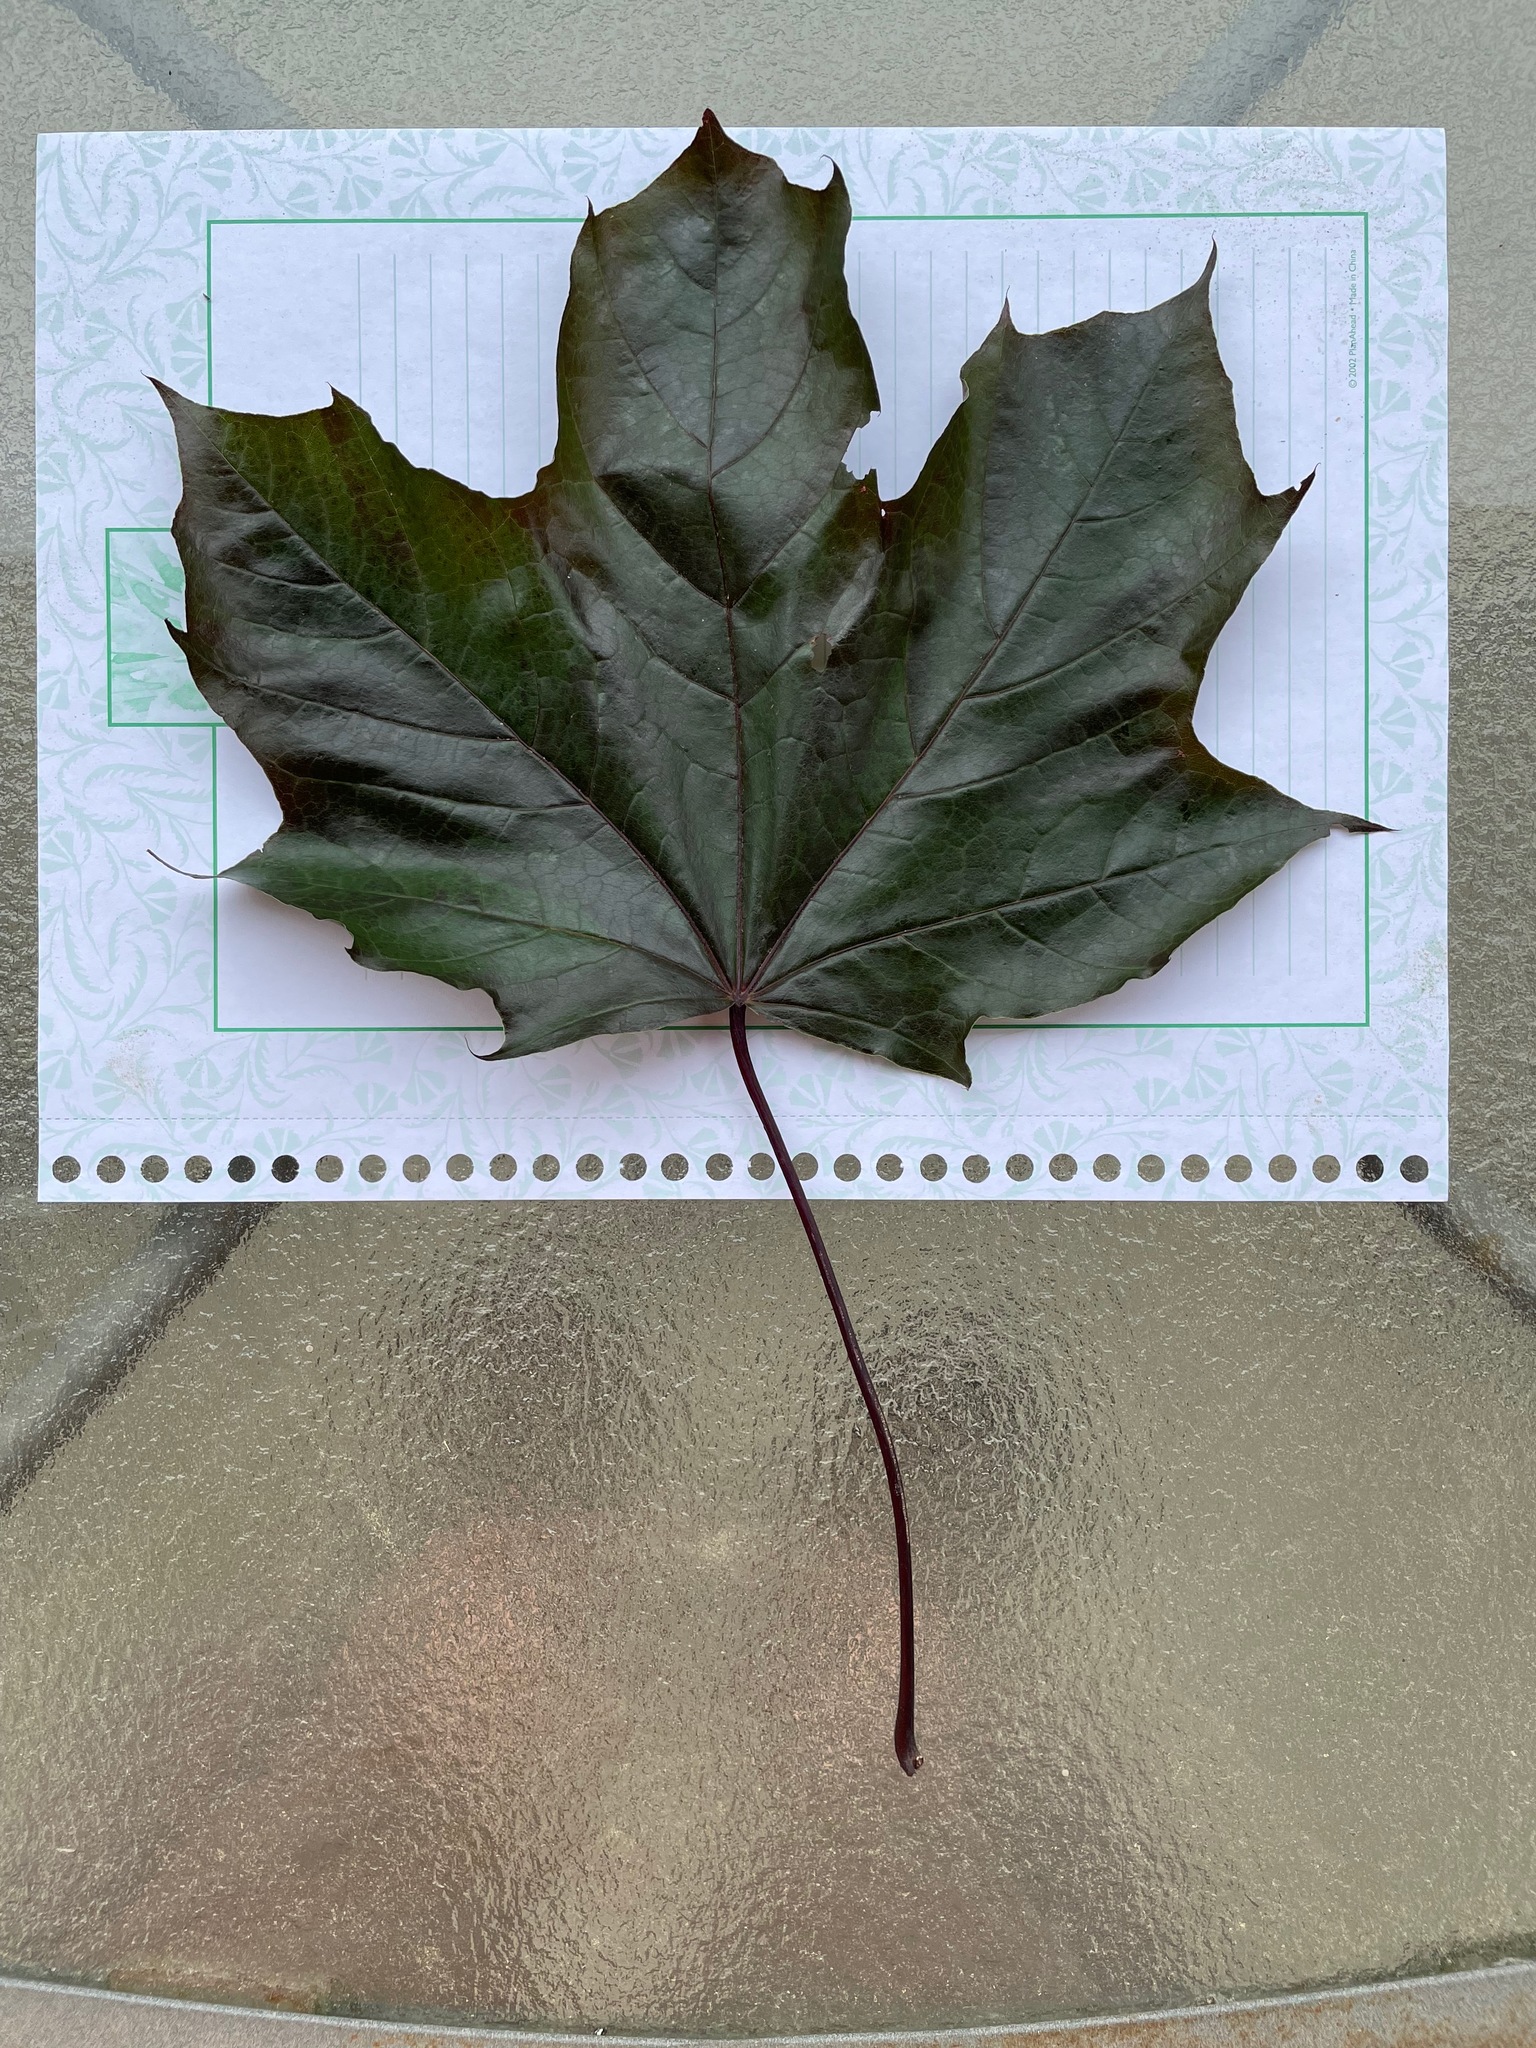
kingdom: Plantae
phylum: Tracheophyta
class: Magnoliopsida
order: Sapindales
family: Sapindaceae
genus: Acer
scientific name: Acer platanoides
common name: Norway maple
